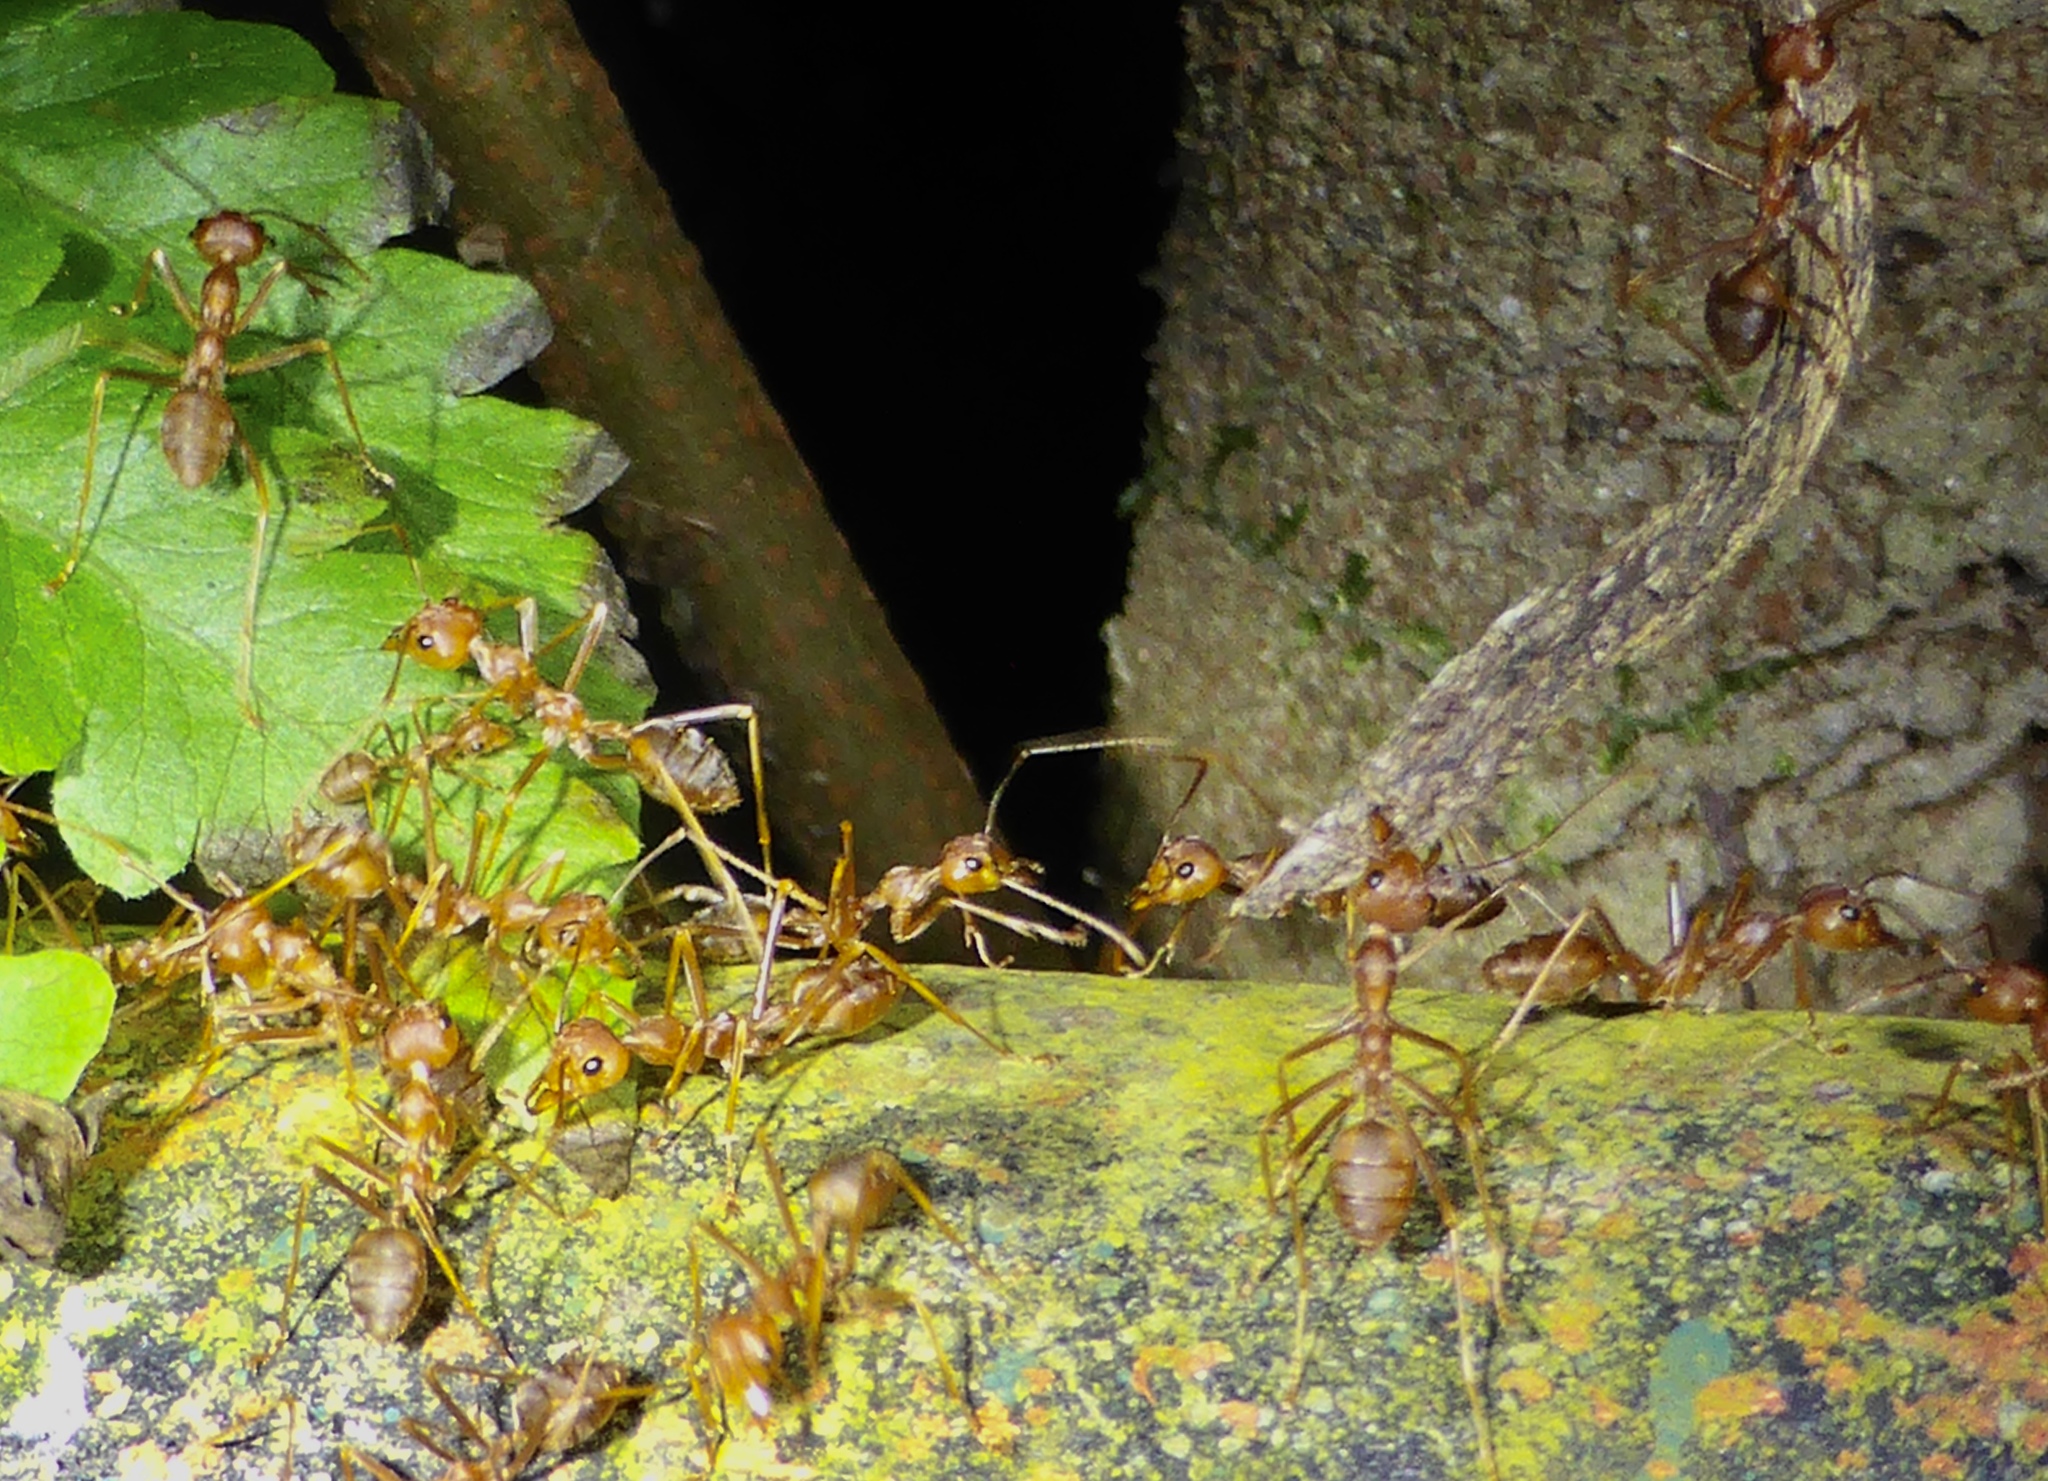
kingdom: Animalia
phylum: Arthropoda
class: Insecta
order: Hymenoptera
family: Formicidae
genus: Oecophylla
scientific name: Oecophylla smaragdina
